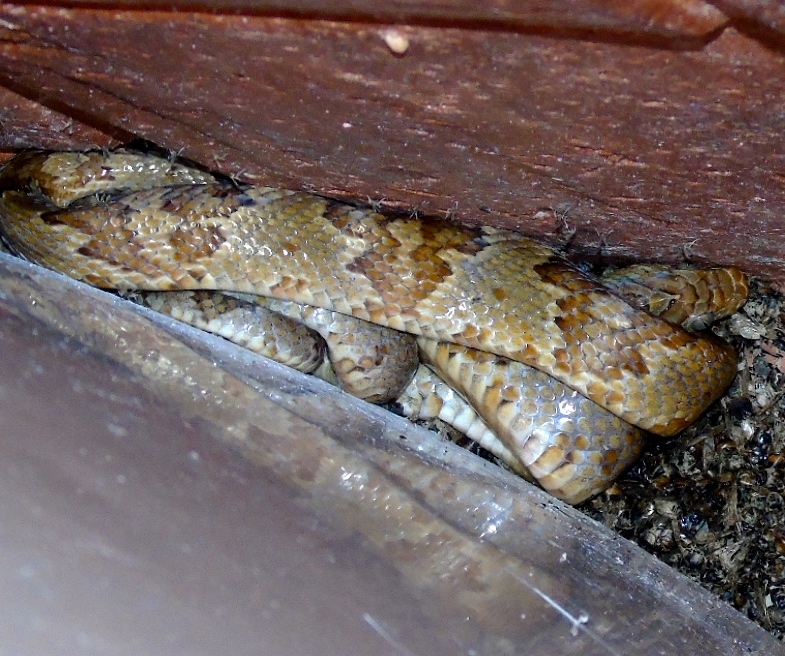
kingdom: Animalia
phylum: Chordata
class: Squamata
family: Colubridae
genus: Trimorphodon
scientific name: Trimorphodon paucimaculatus
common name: Sinaloan lyresnake
